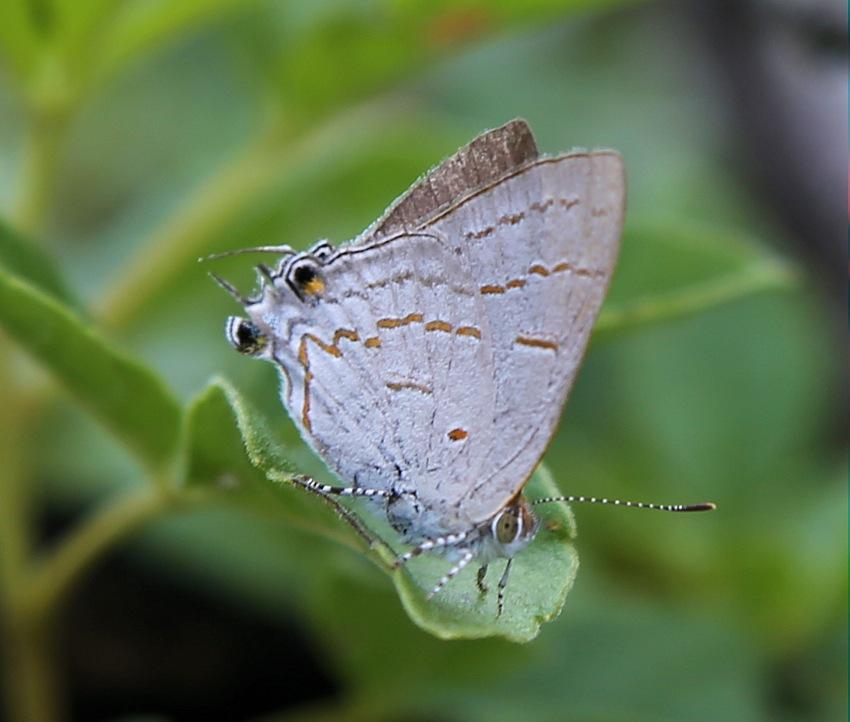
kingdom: Animalia
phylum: Arthropoda
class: Insecta
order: Lepidoptera
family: Lycaenidae
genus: Hypolycaena
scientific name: Hypolycaena philippus
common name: Common hairstreak
